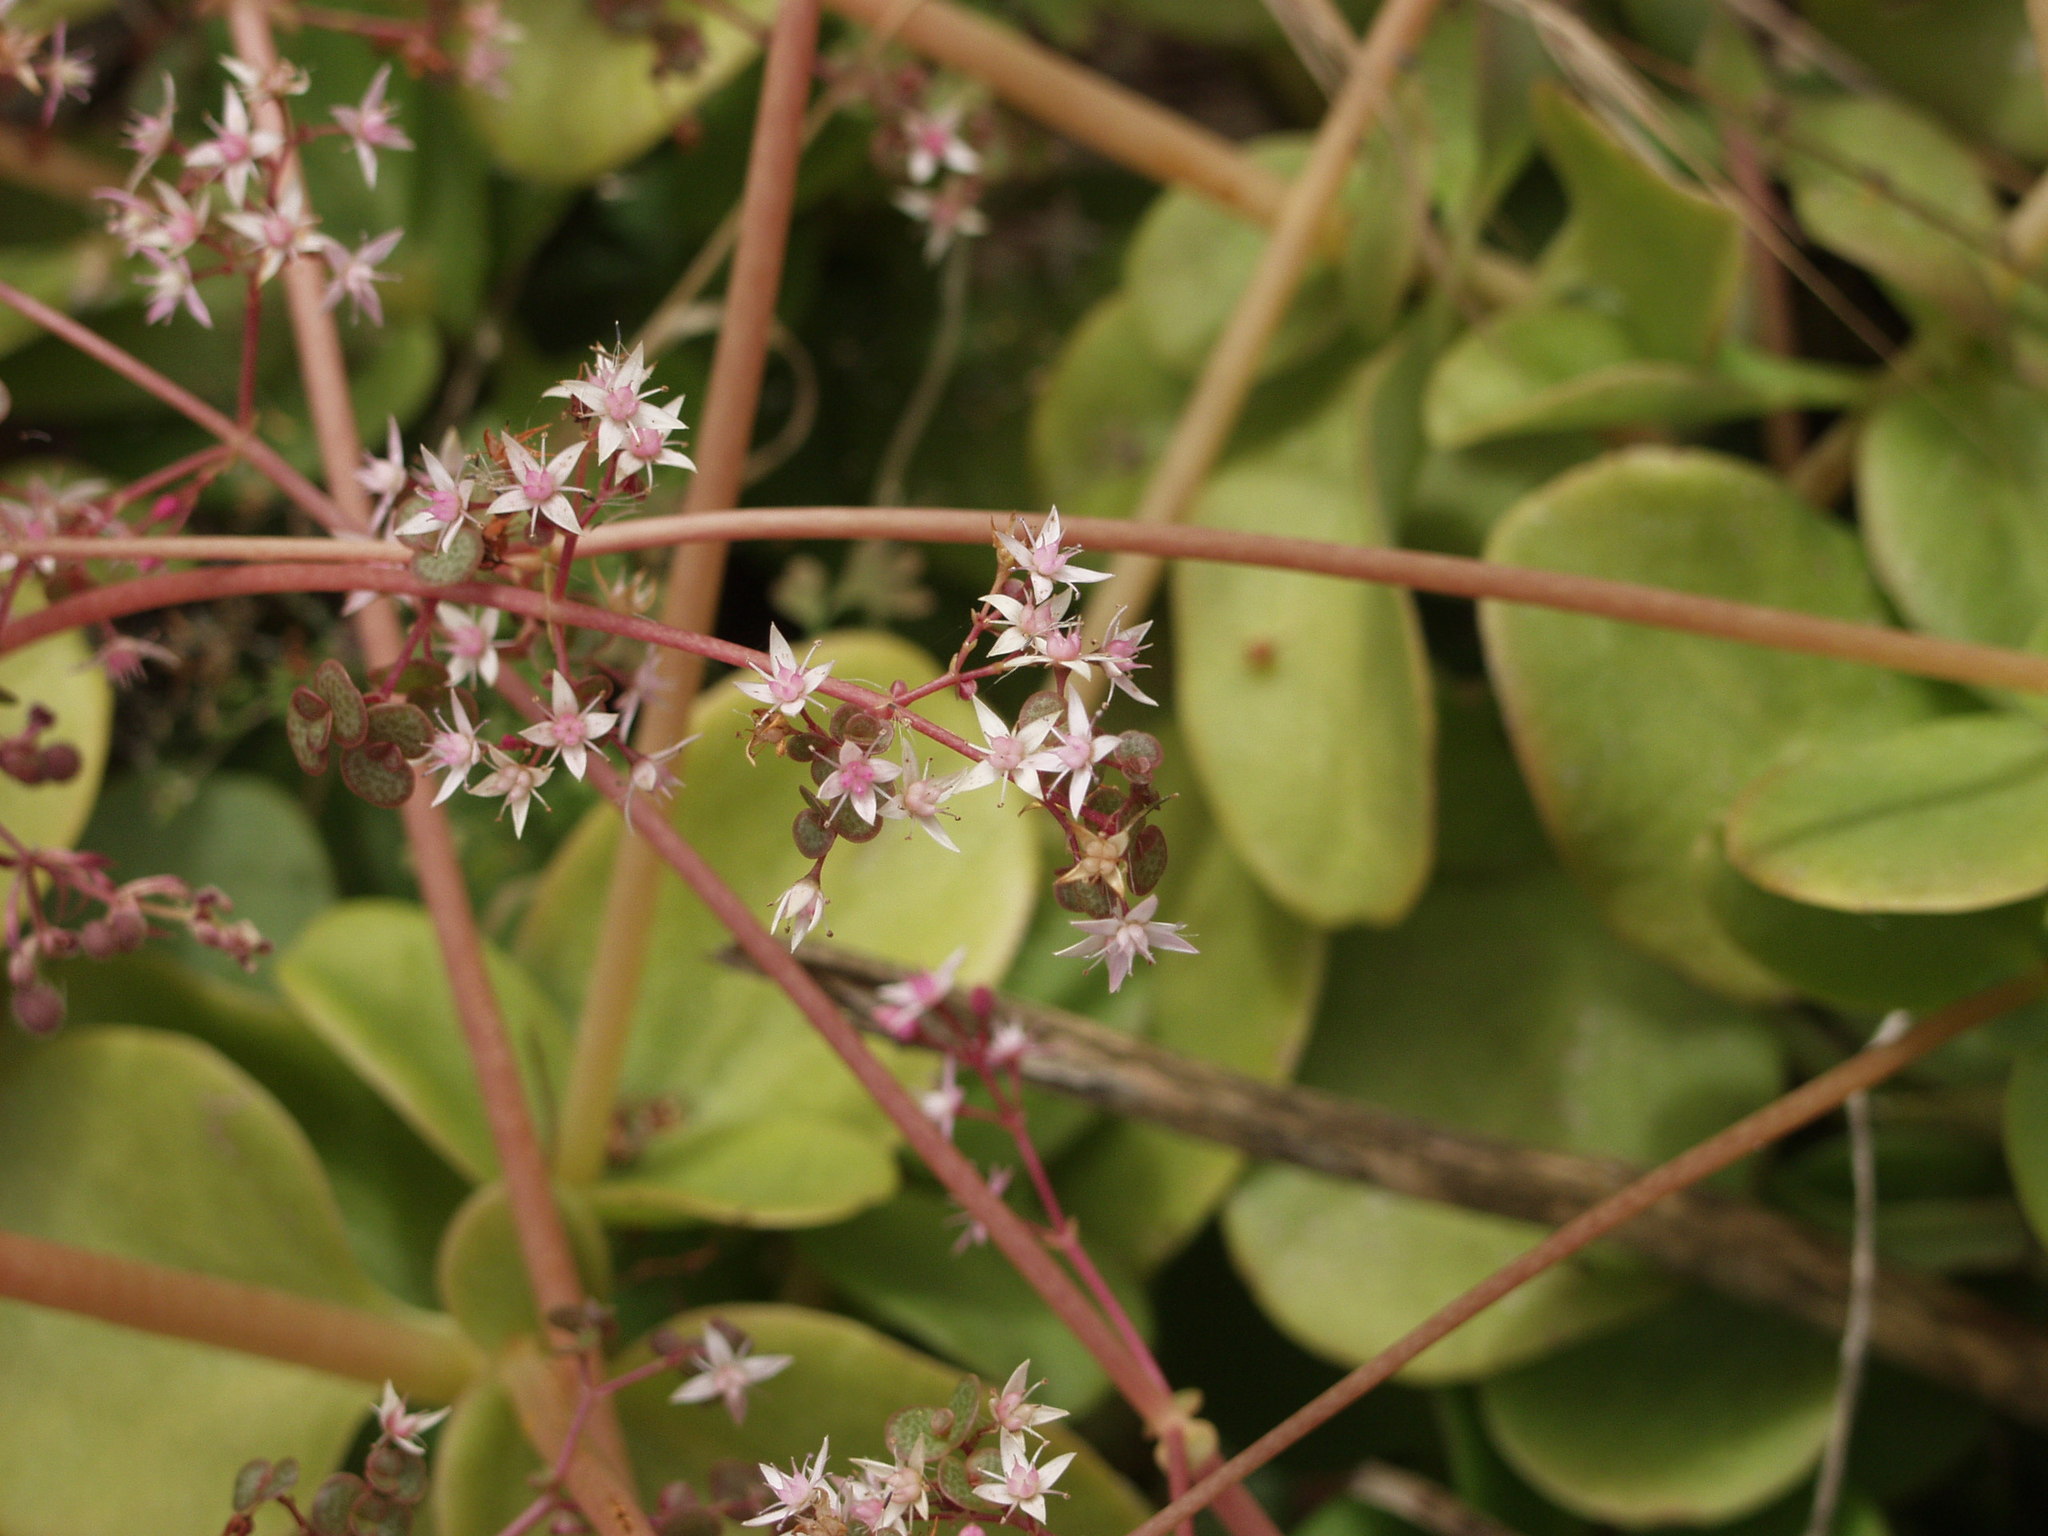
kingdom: Plantae
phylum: Tracheophyta
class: Magnoliopsida
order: Saxifragales
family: Crassulaceae
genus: Crassula
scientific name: Crassula multicava
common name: Cape province pygmyweed
